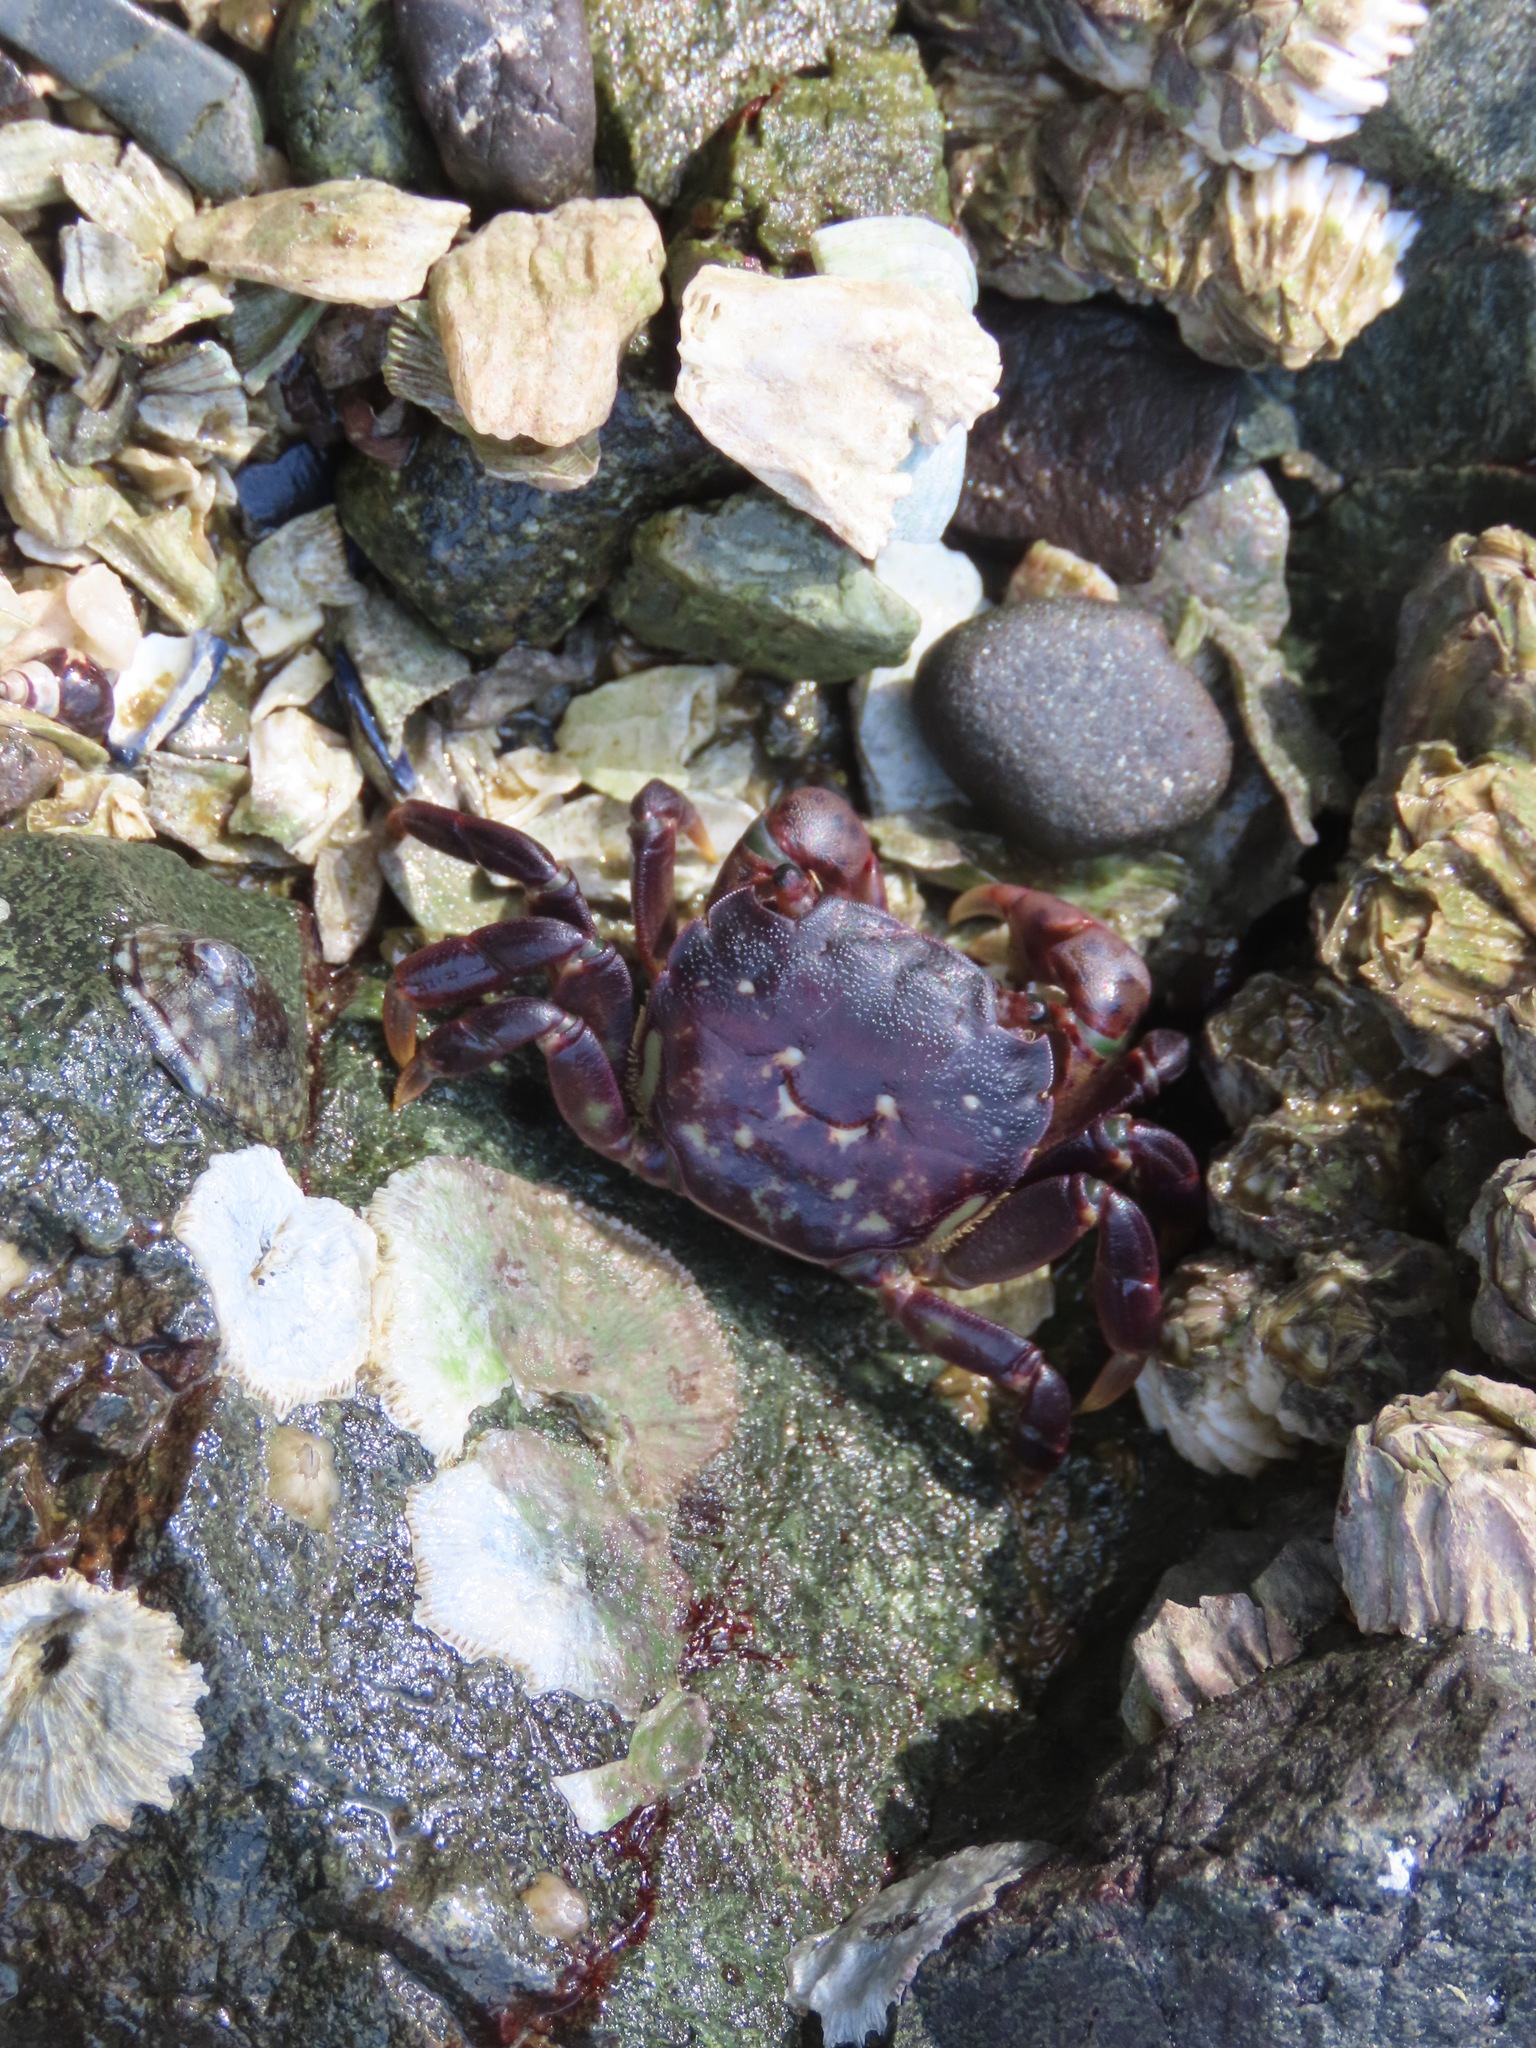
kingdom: Animalia
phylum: Arthropoda
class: Malacostraca
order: Decapoda
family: Varunidae
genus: Hemigrapsus
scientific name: Hemigrapsus nudus
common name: Purple shore crab
